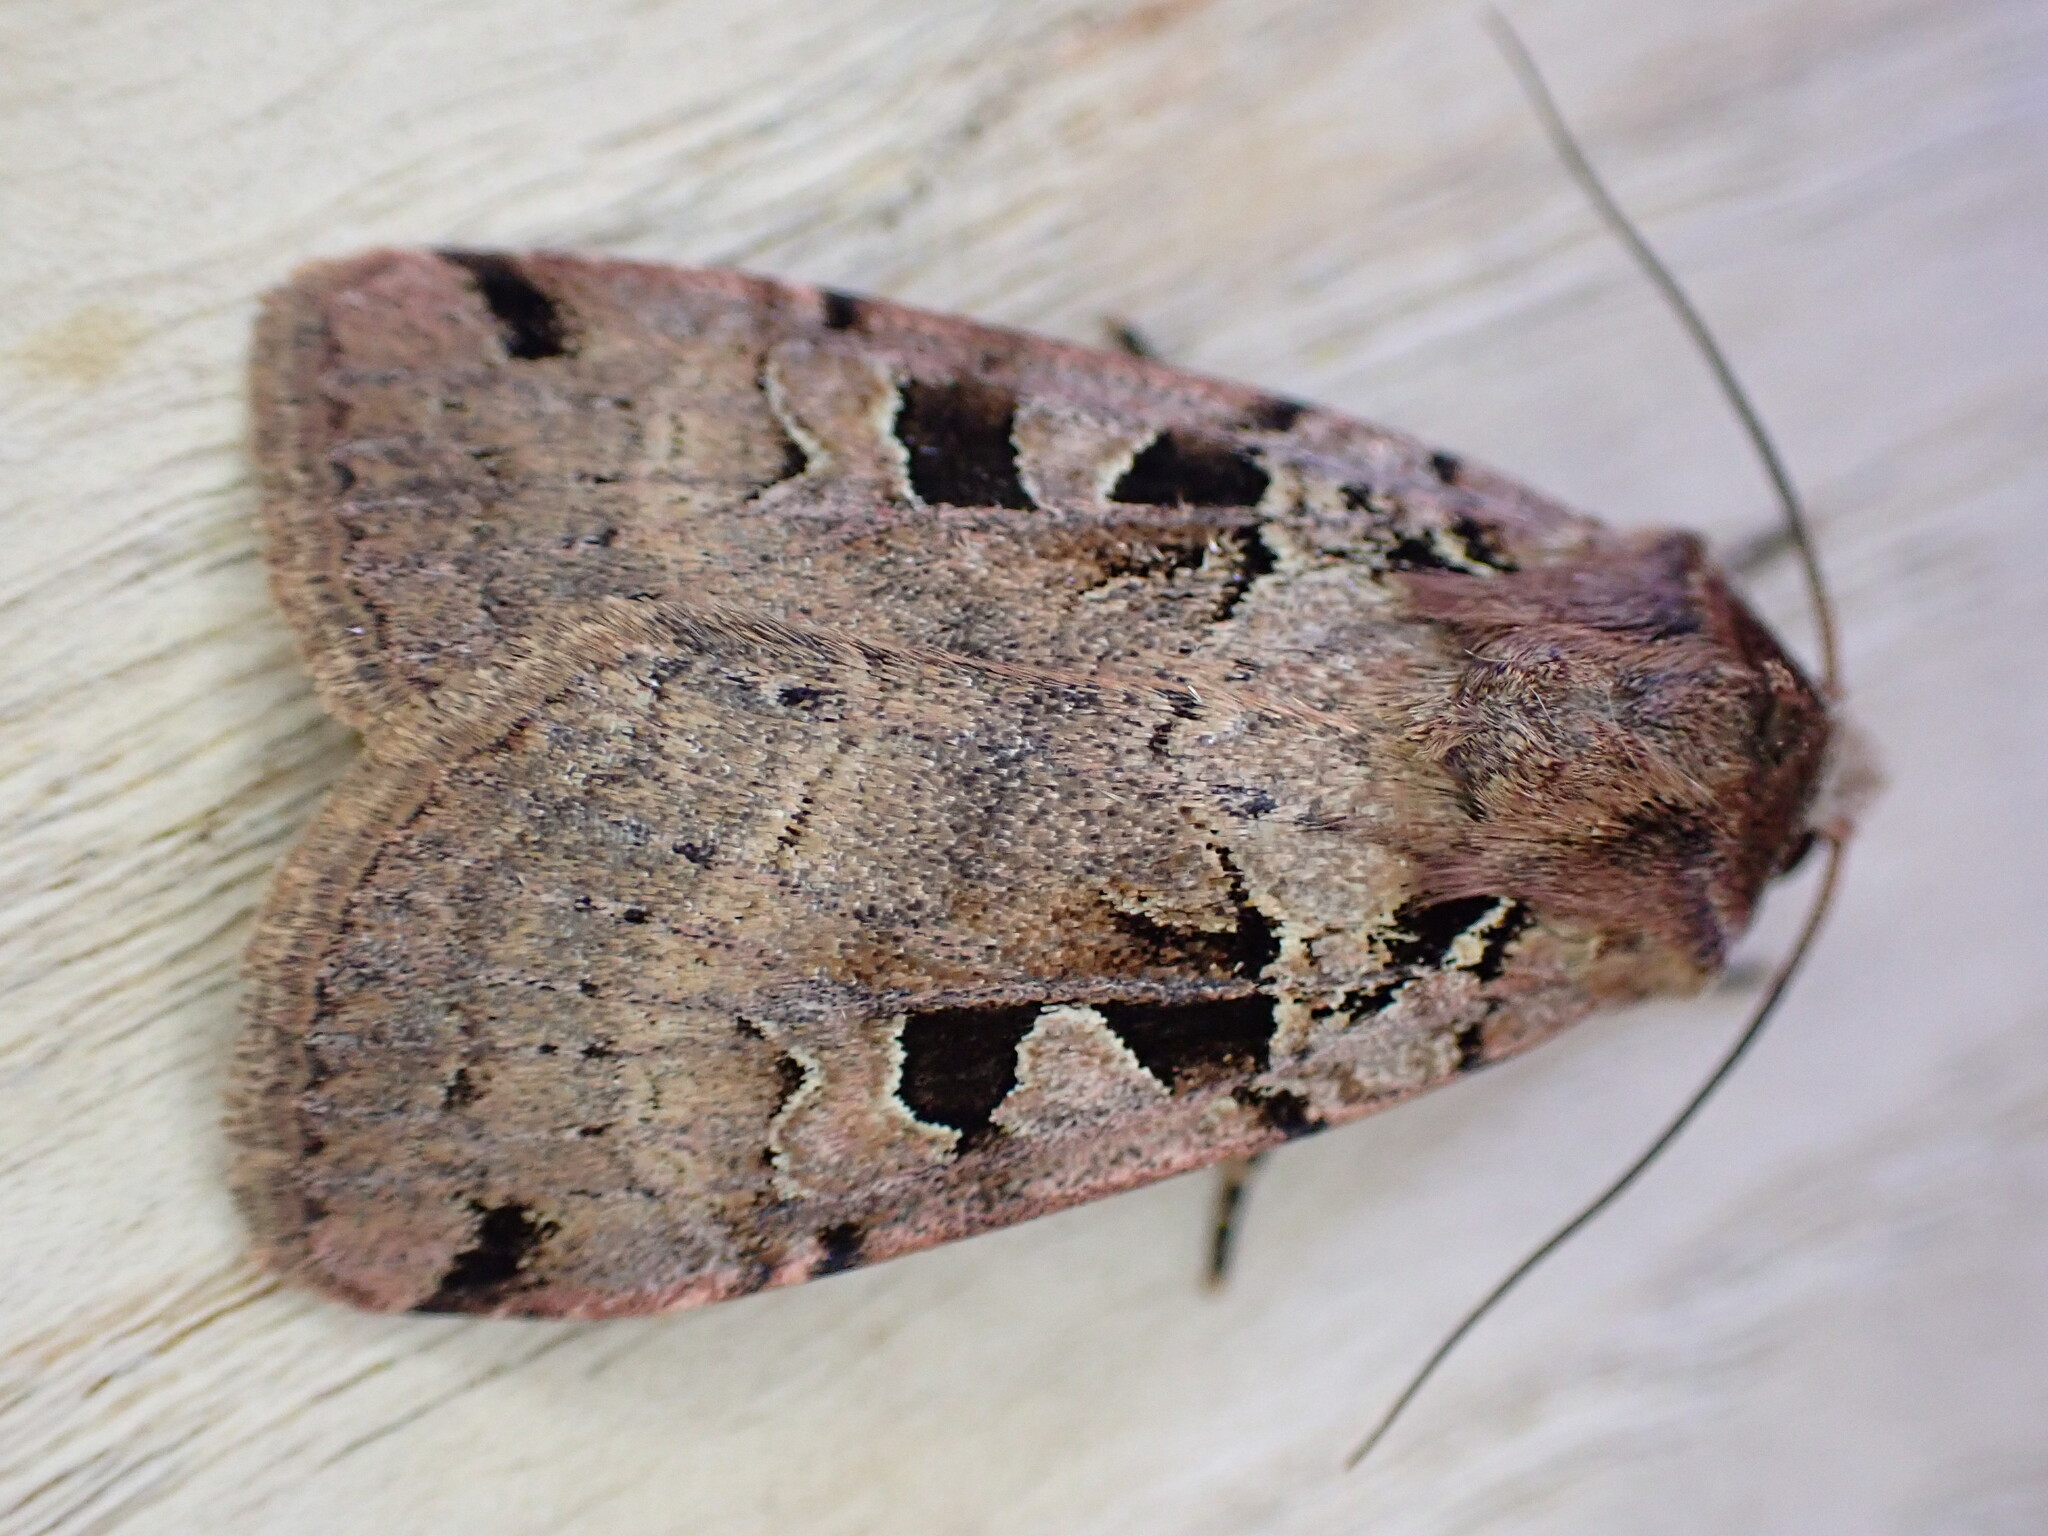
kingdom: Animalia
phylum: Arthropoda
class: Insecta
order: Lepidoptera
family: Noctuidae
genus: Xestia
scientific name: Xestia triangulum
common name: Double square-spot
